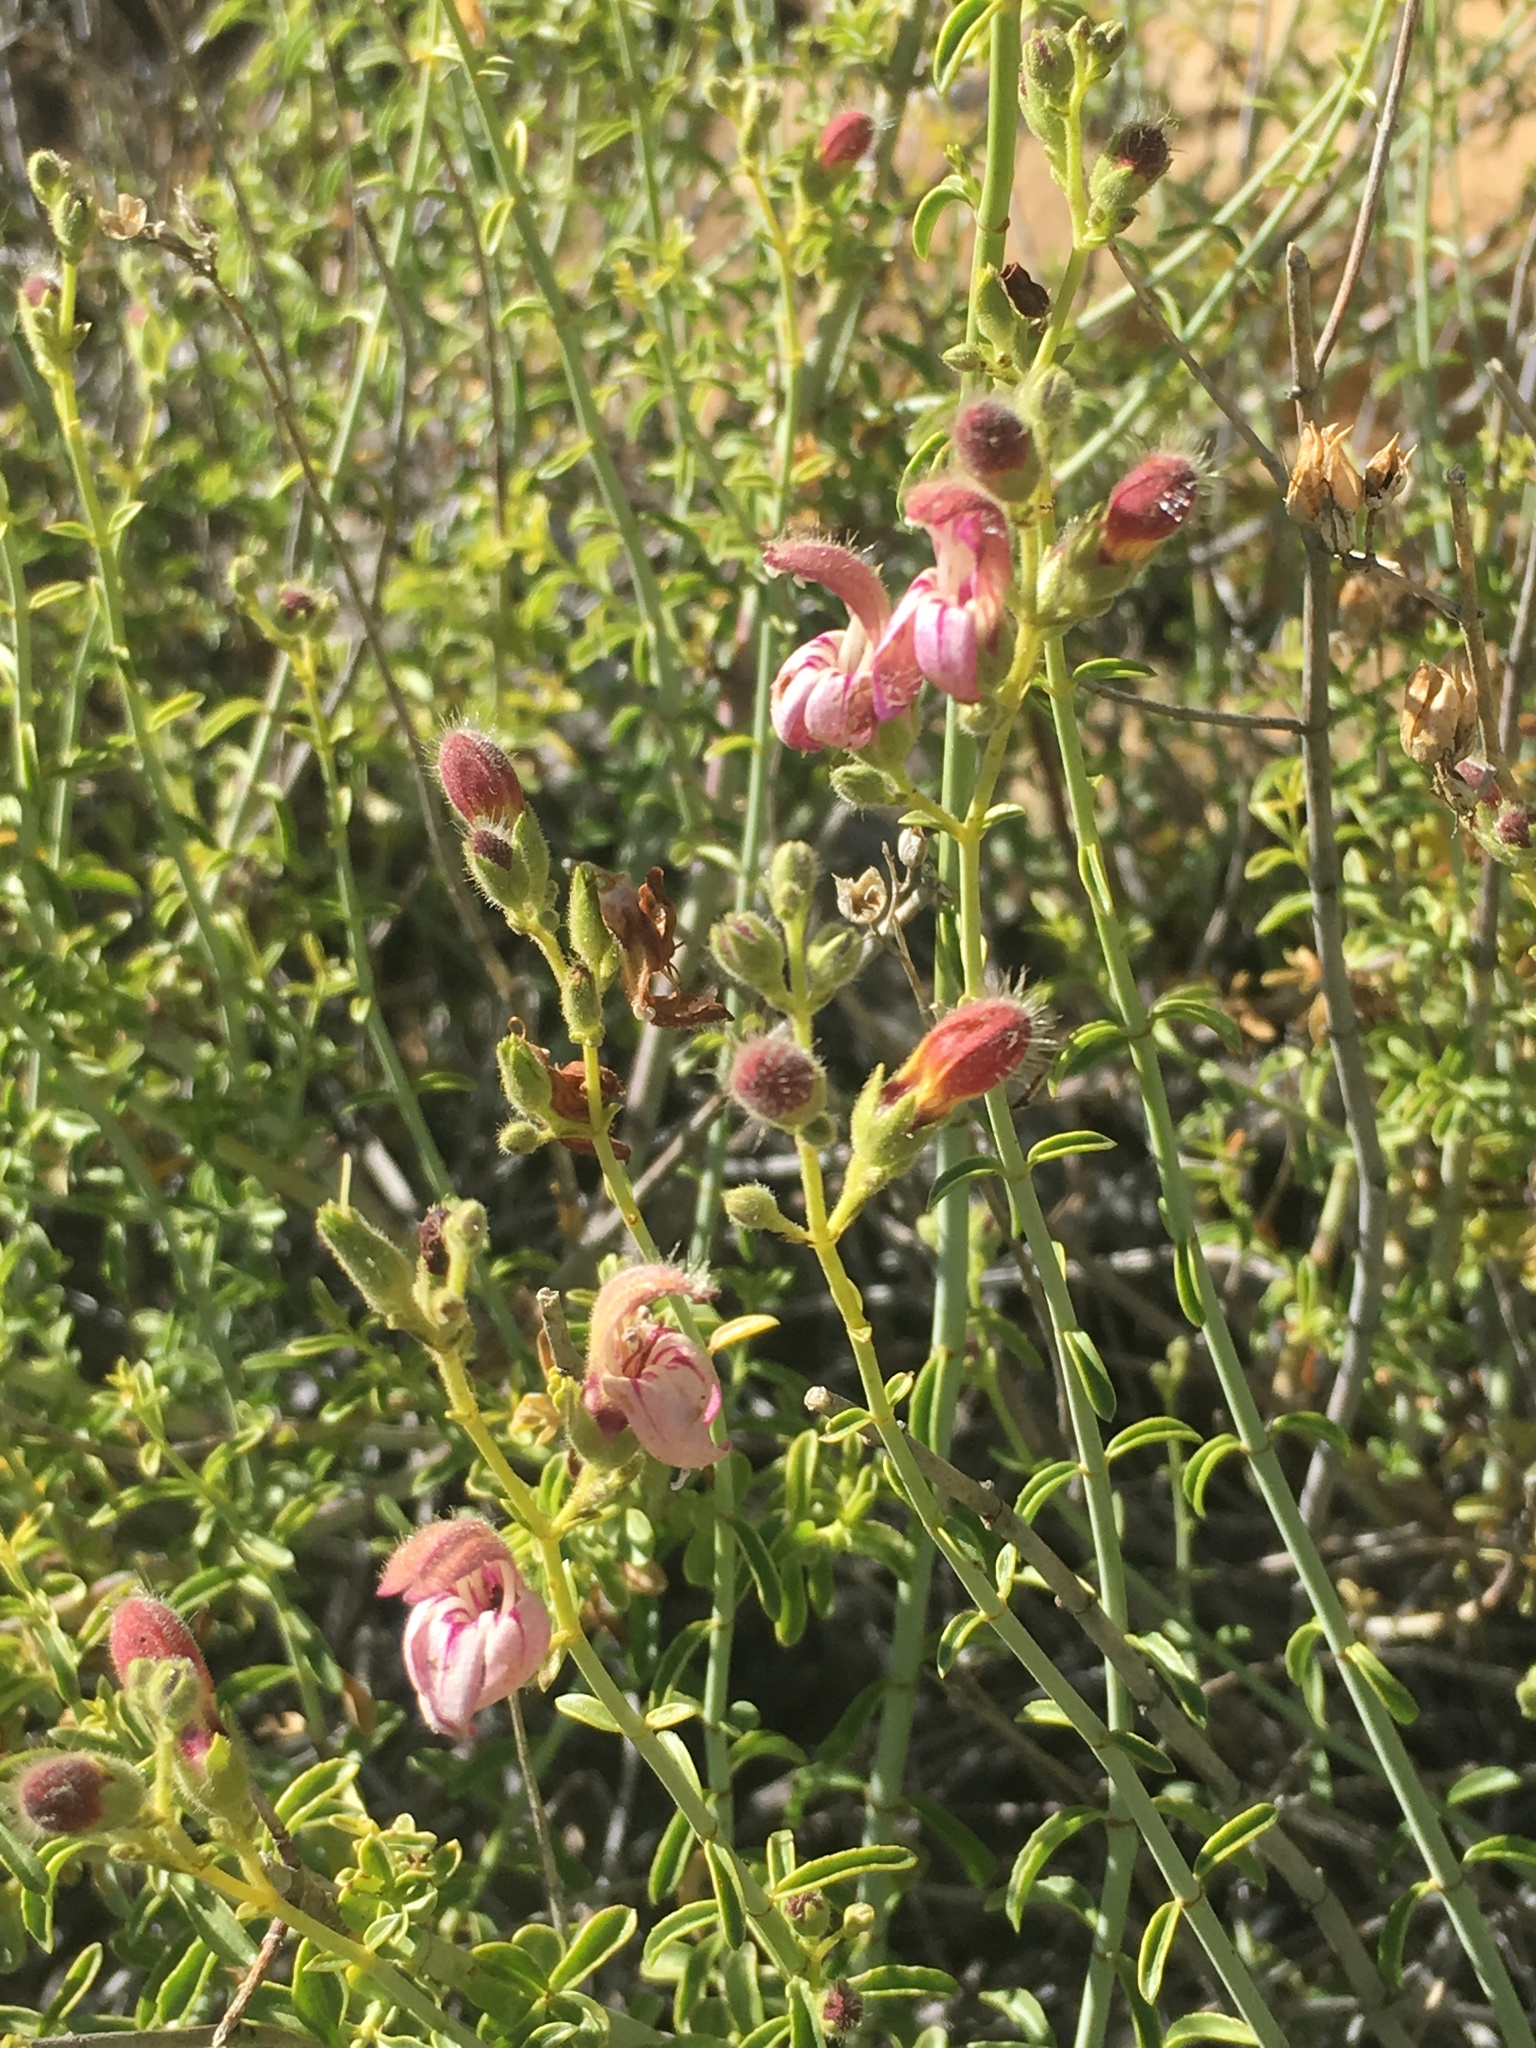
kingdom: Plantae
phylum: Tracheophyta
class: Magnoliopsida
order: Lamiales
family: Plantaginaceae
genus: Keckiella
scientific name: Keckiella breviflora
